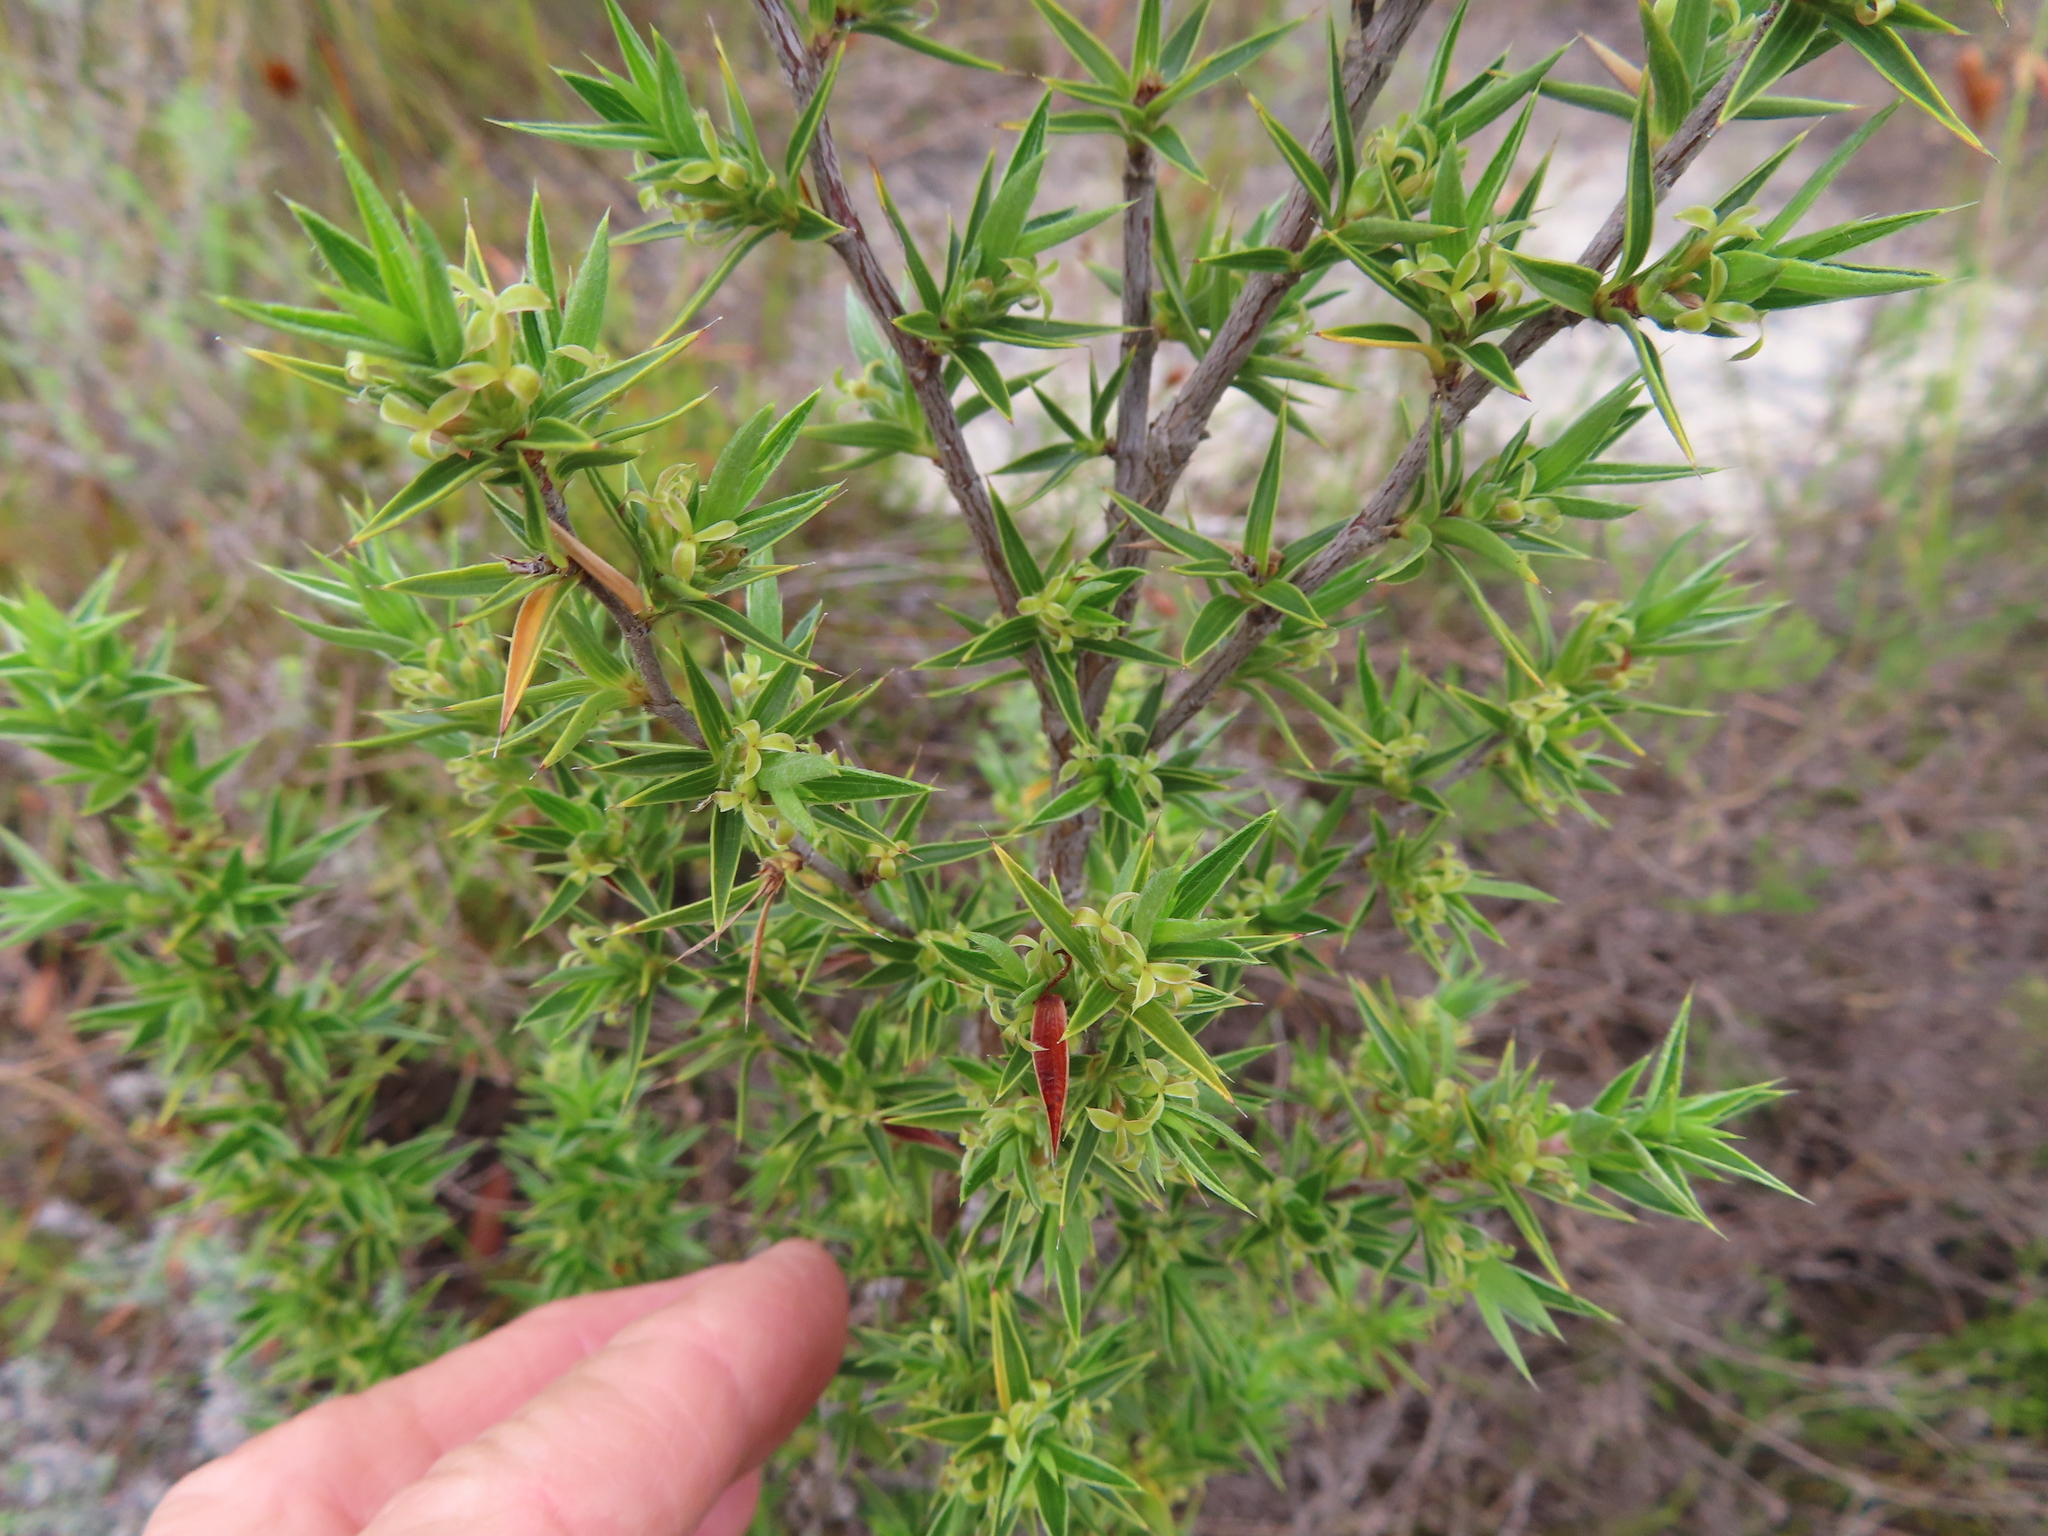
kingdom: Plantae
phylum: Tracheophyta
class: Magnoliopsida
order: Rosales
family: Rosaceae
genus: Cliffortia
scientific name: Cliffortia ruscifolia
